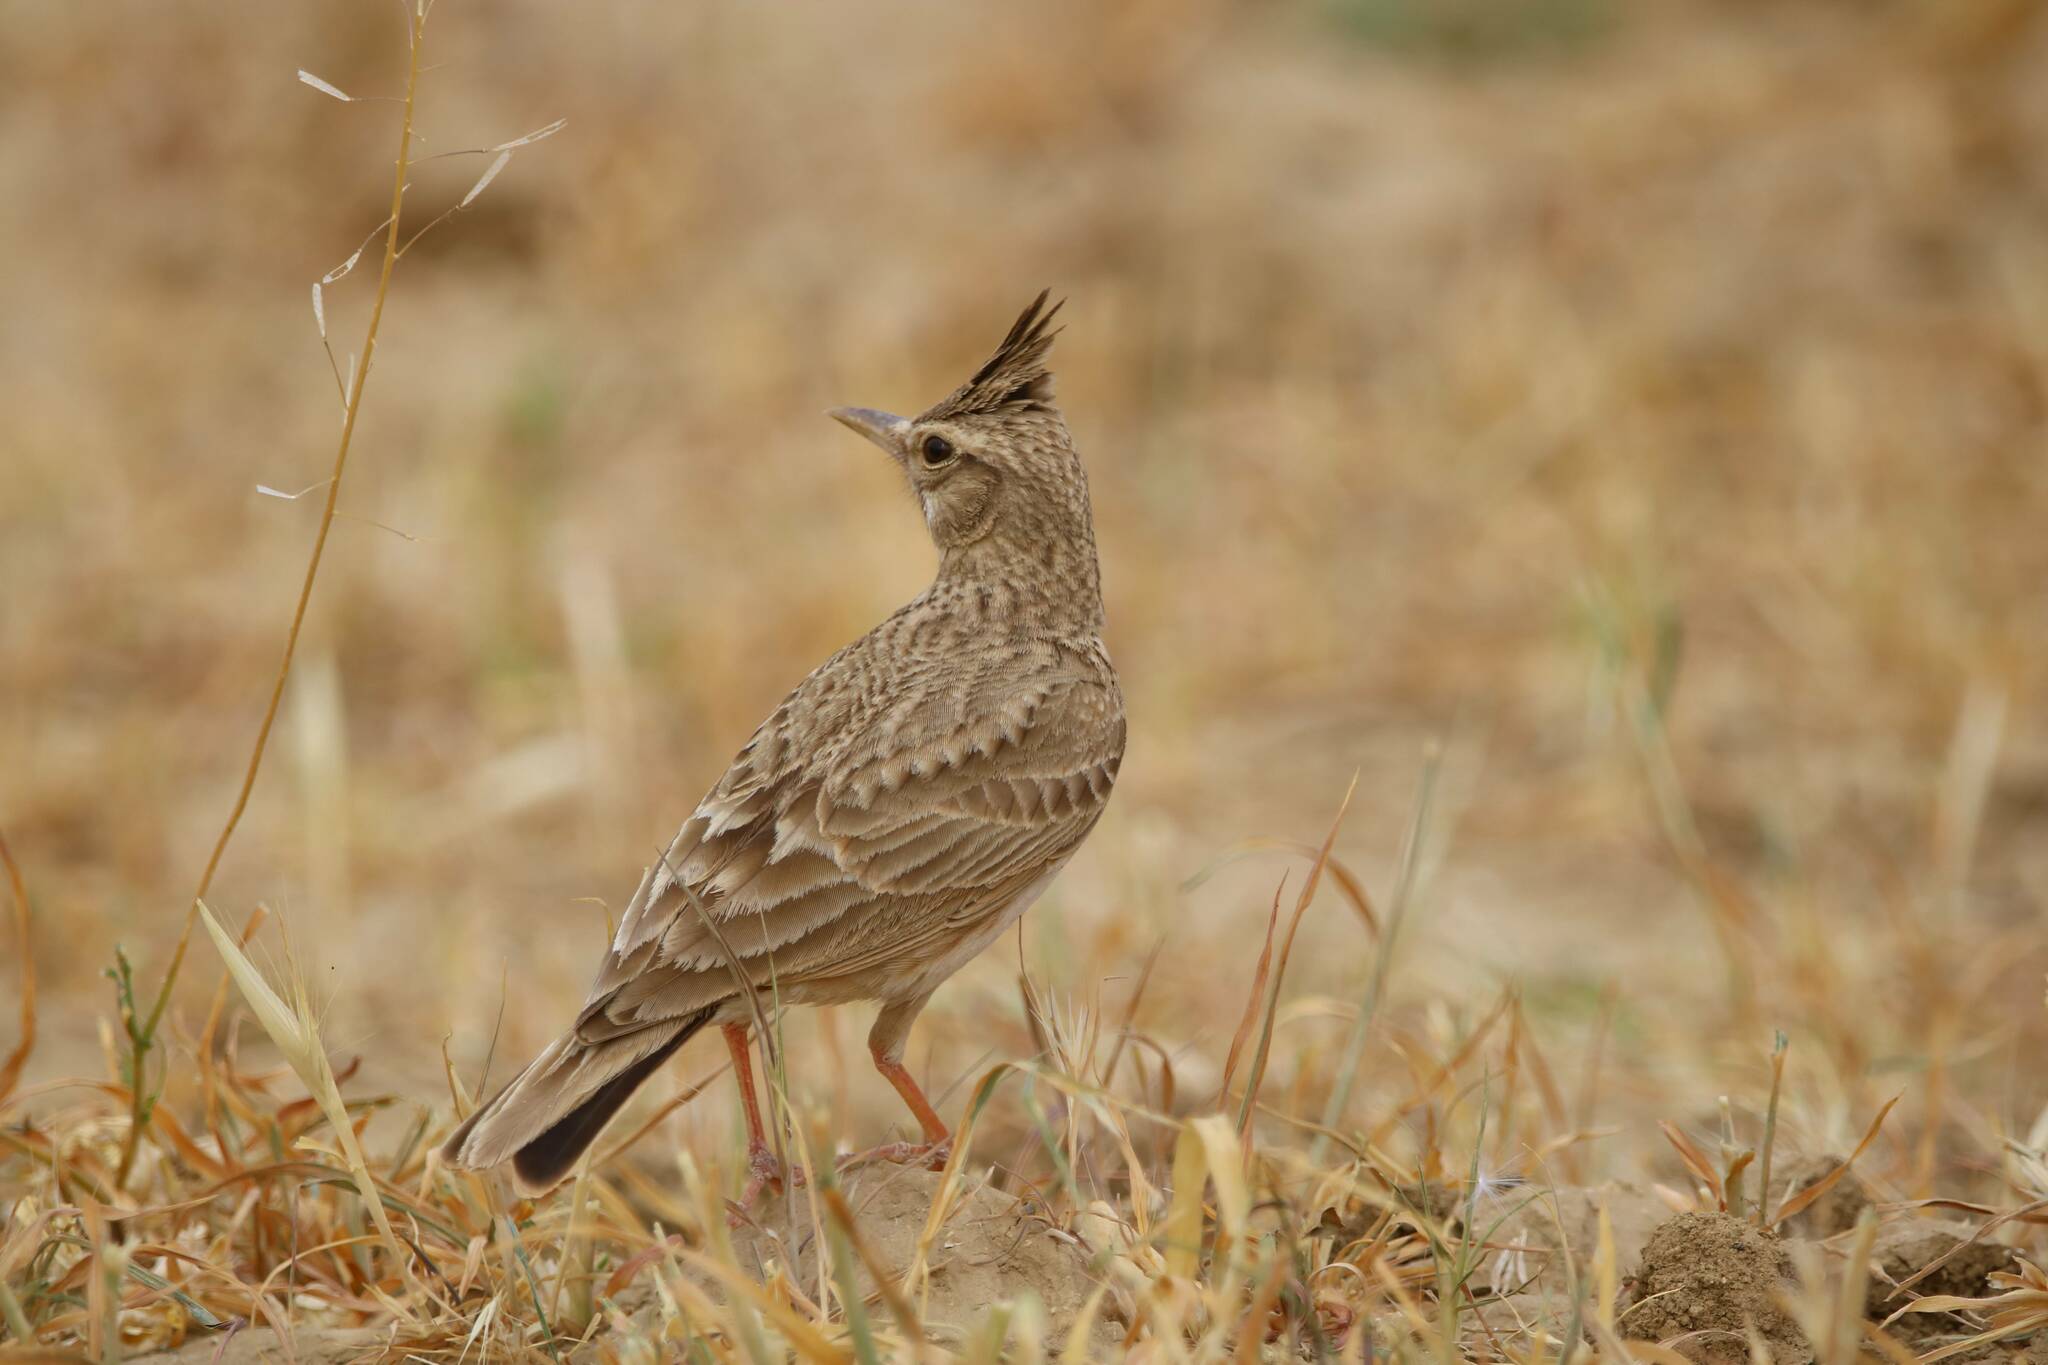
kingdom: Animalia
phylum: Chordata
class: Aves
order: Passeriformes
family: Alaudidae
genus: Galerida
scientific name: Galerida cristata
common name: Crested lark
